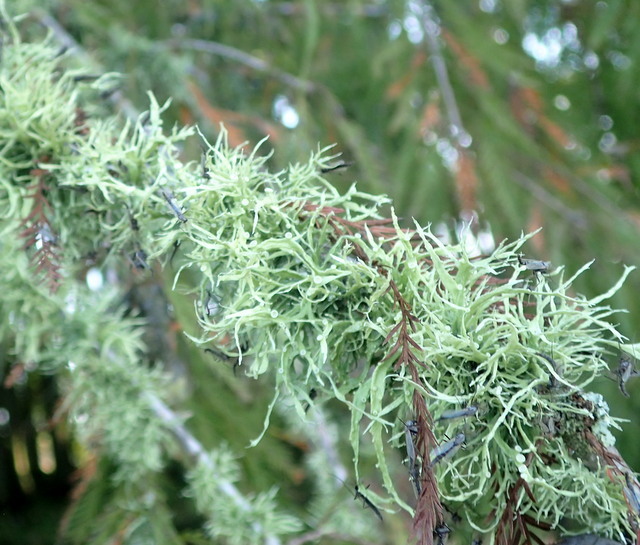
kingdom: Fungi
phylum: Ascomycota
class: Lecanoromycetes
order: Lecanorales
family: Ramalinaceae
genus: Ramalina
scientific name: Ramalina stenospora
